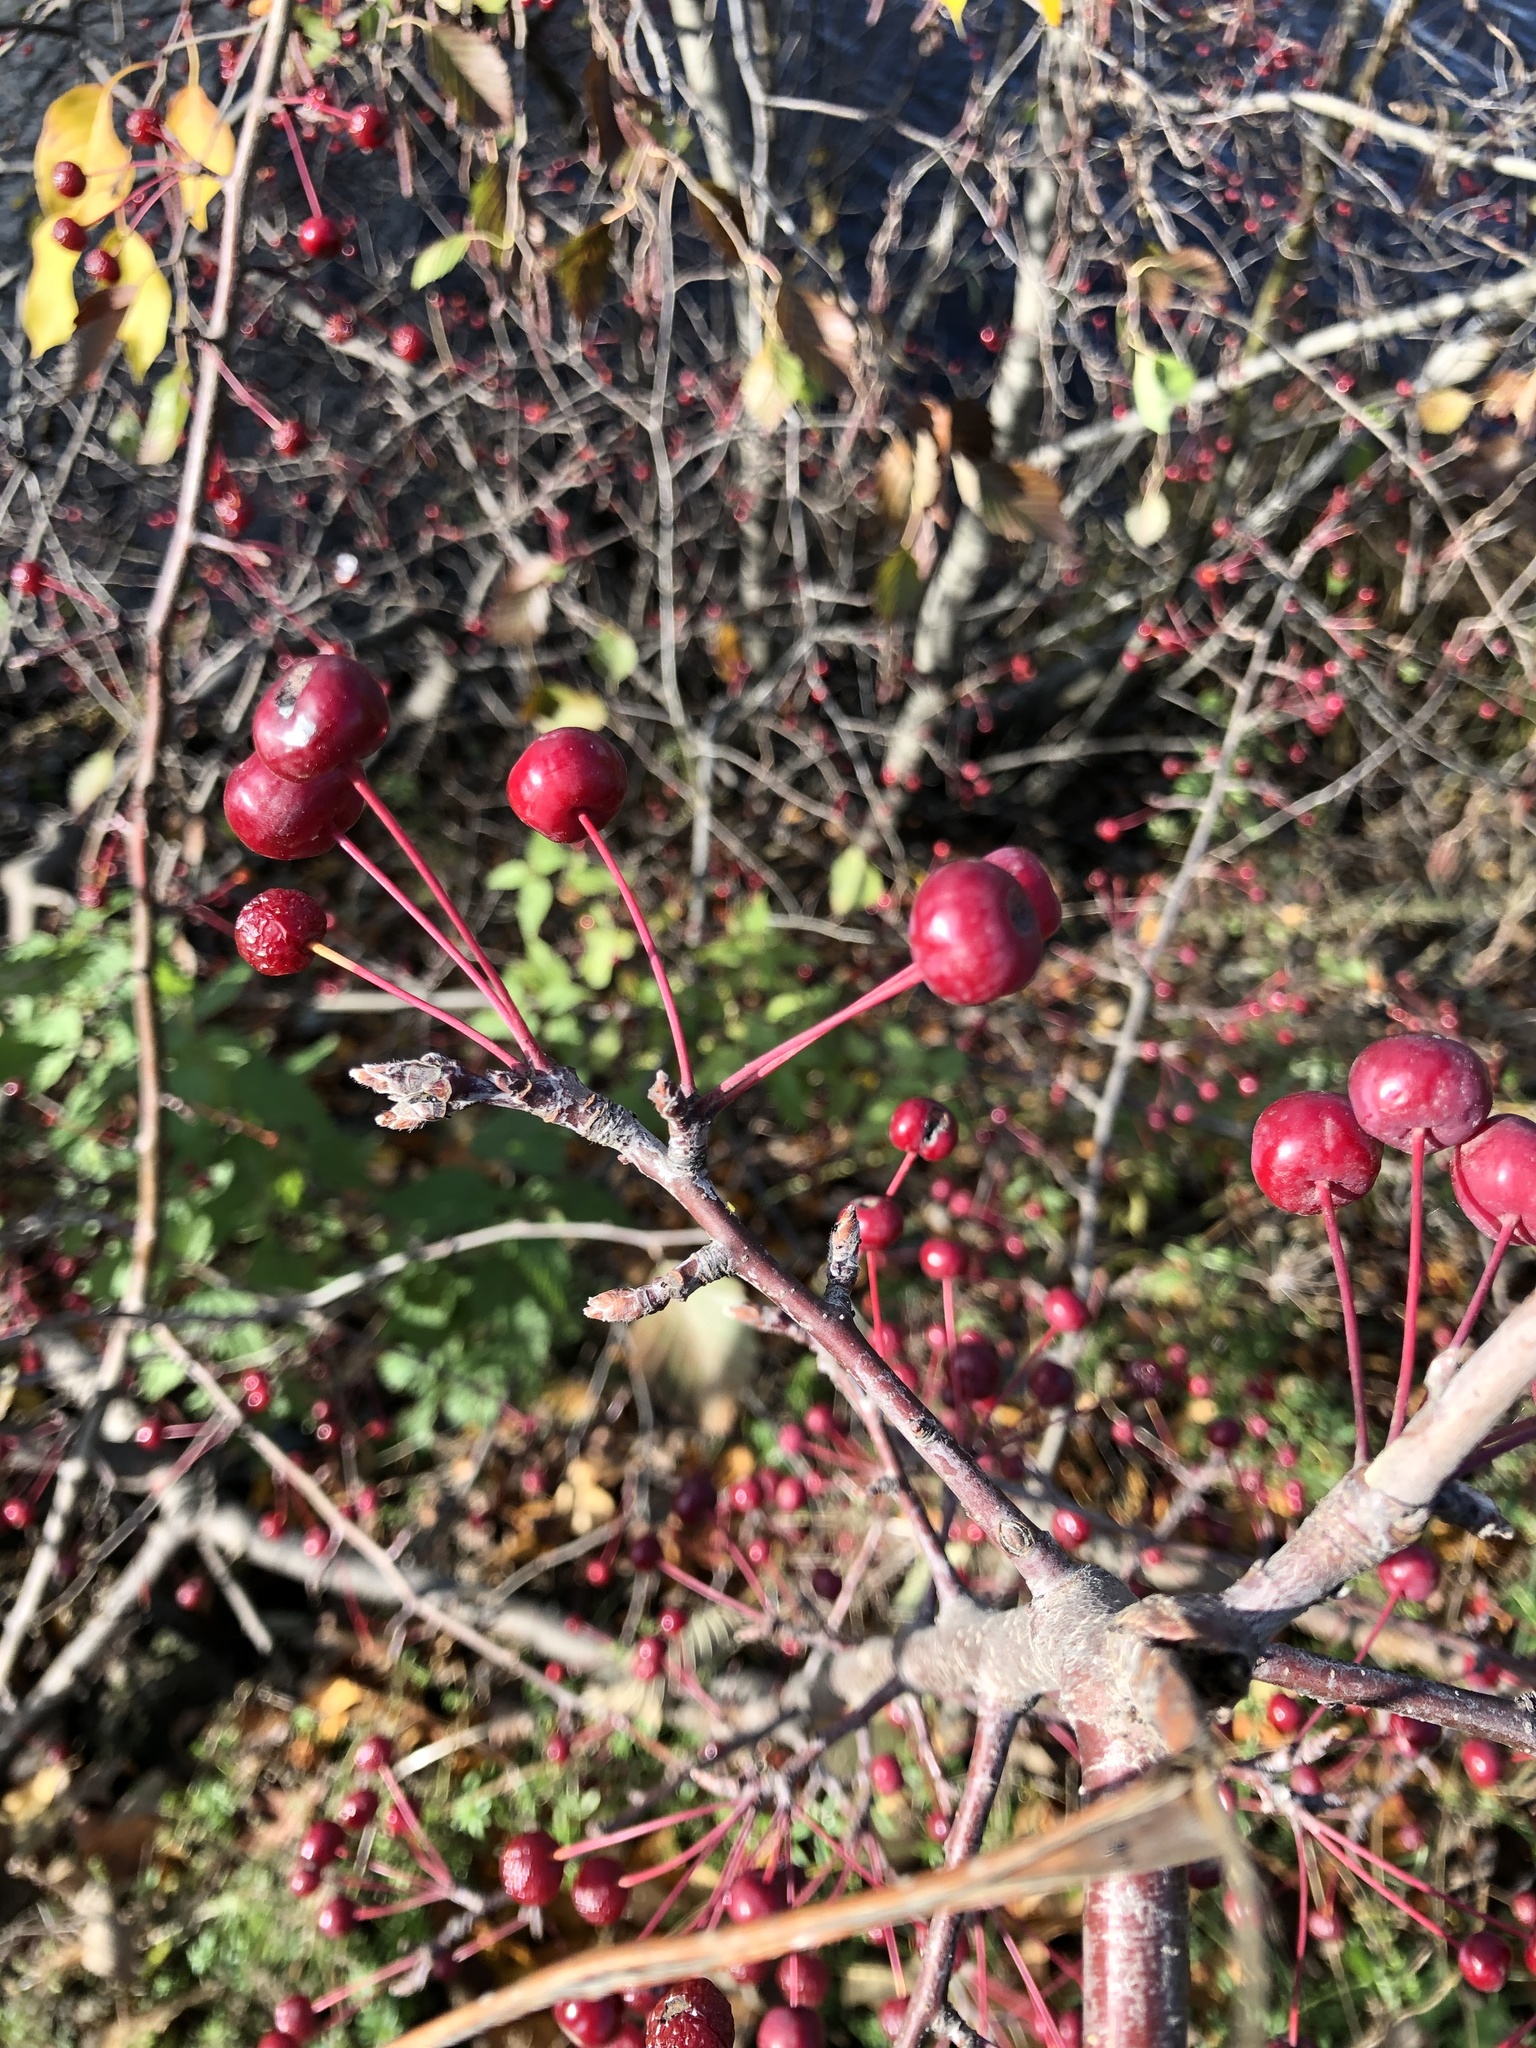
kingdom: Plantae
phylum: Tracheophyta
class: Magnoliopsida
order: Rosales
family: Rosaceae
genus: Malus
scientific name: Malus baccata
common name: Siberian crab
